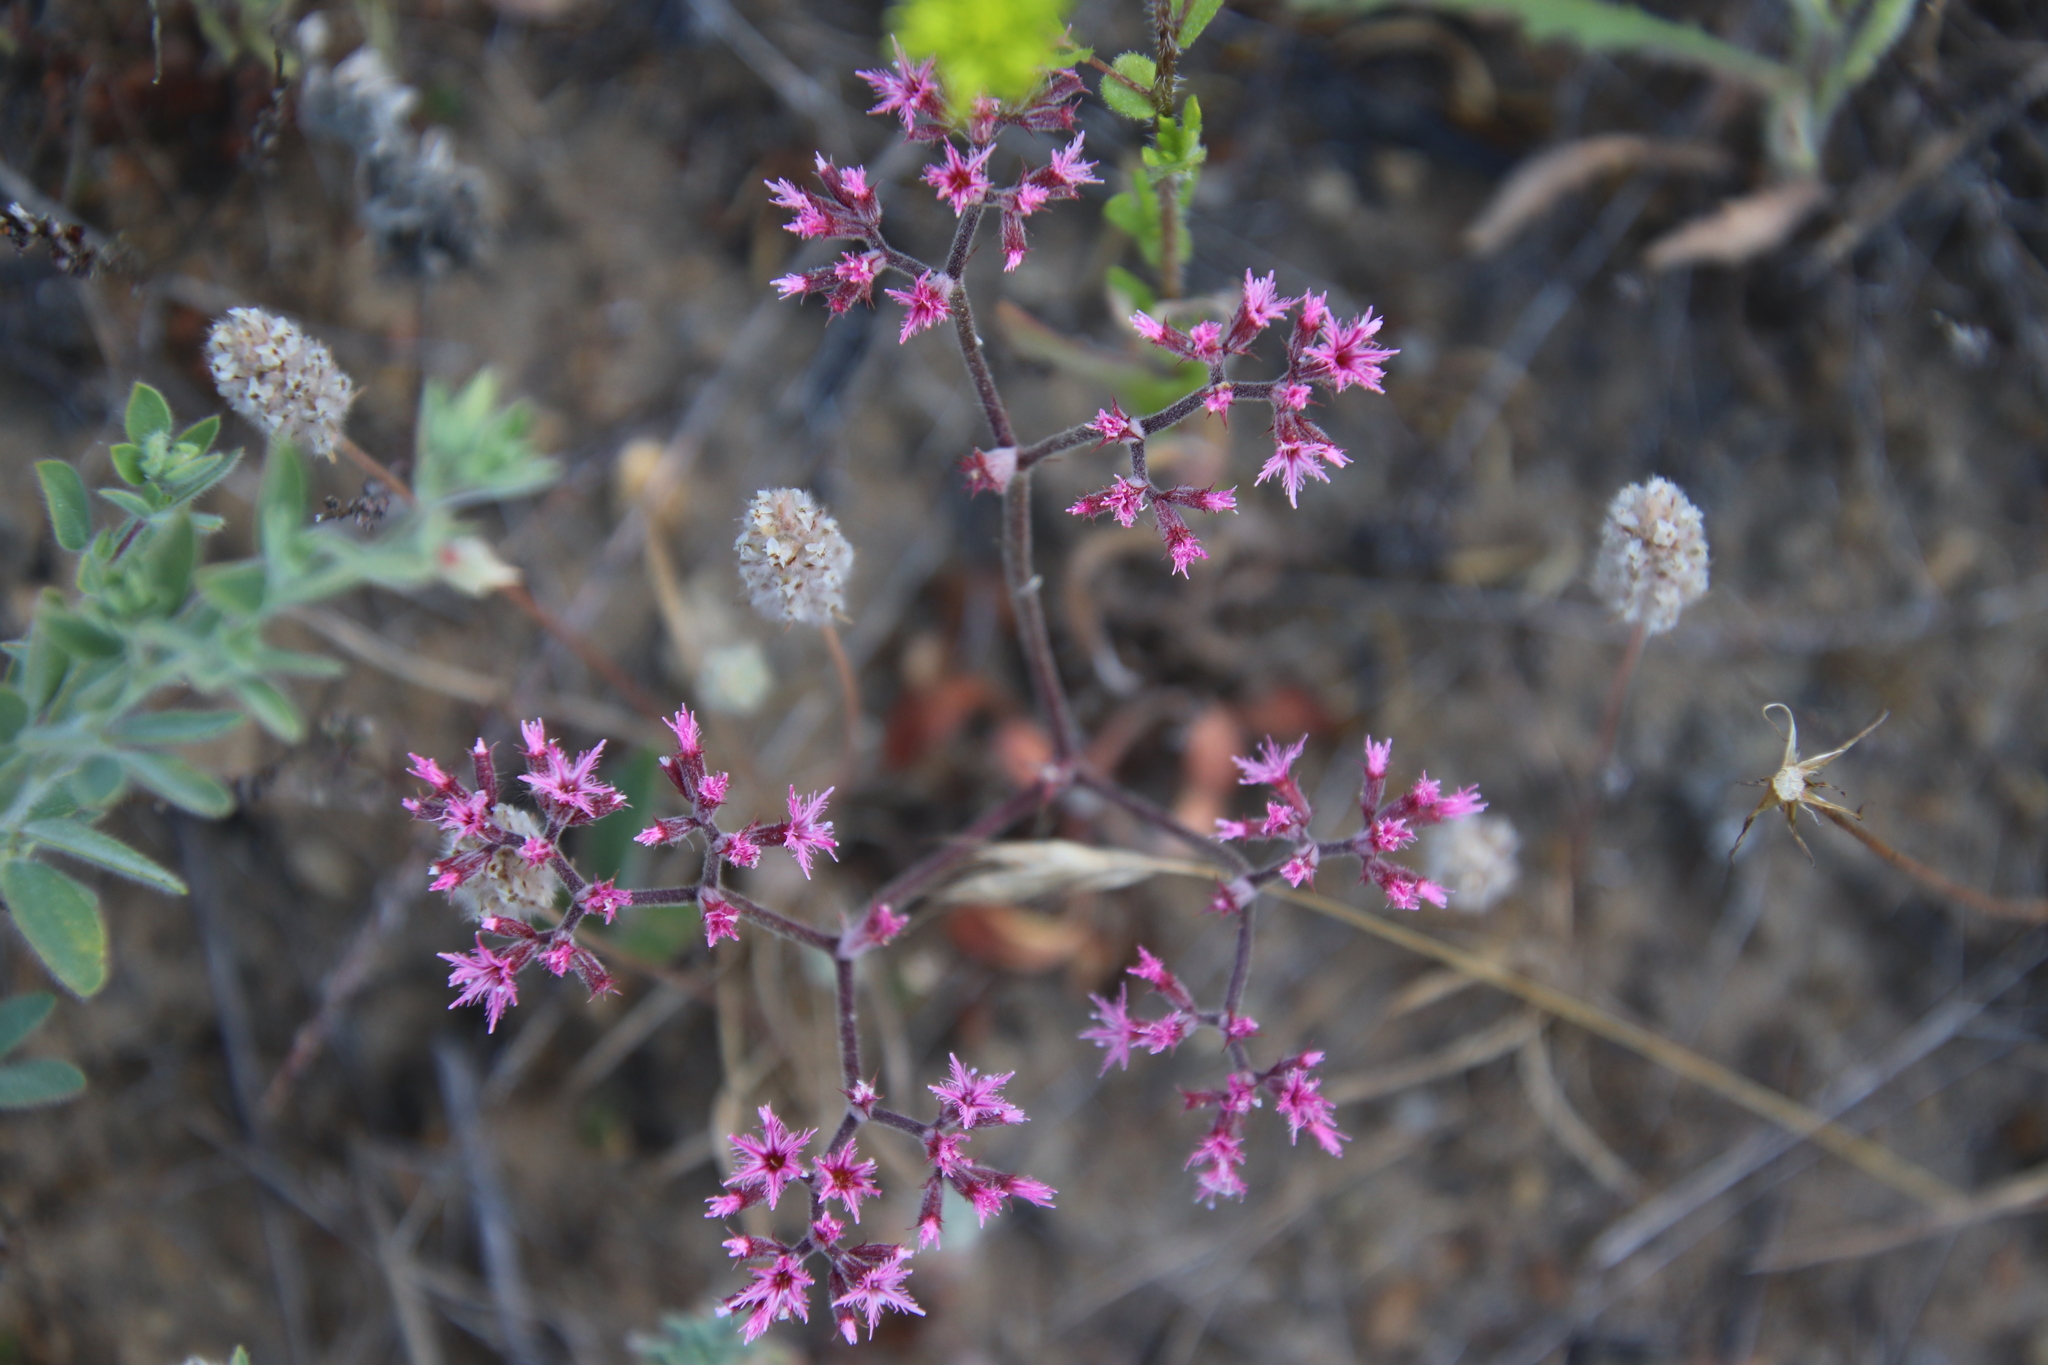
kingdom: Plantae
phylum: Tracheophyta
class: Magnoliopsida
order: Caryophyllales
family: Polygonaceae
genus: Chorizanthe
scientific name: Chorizanthe fimbriata
